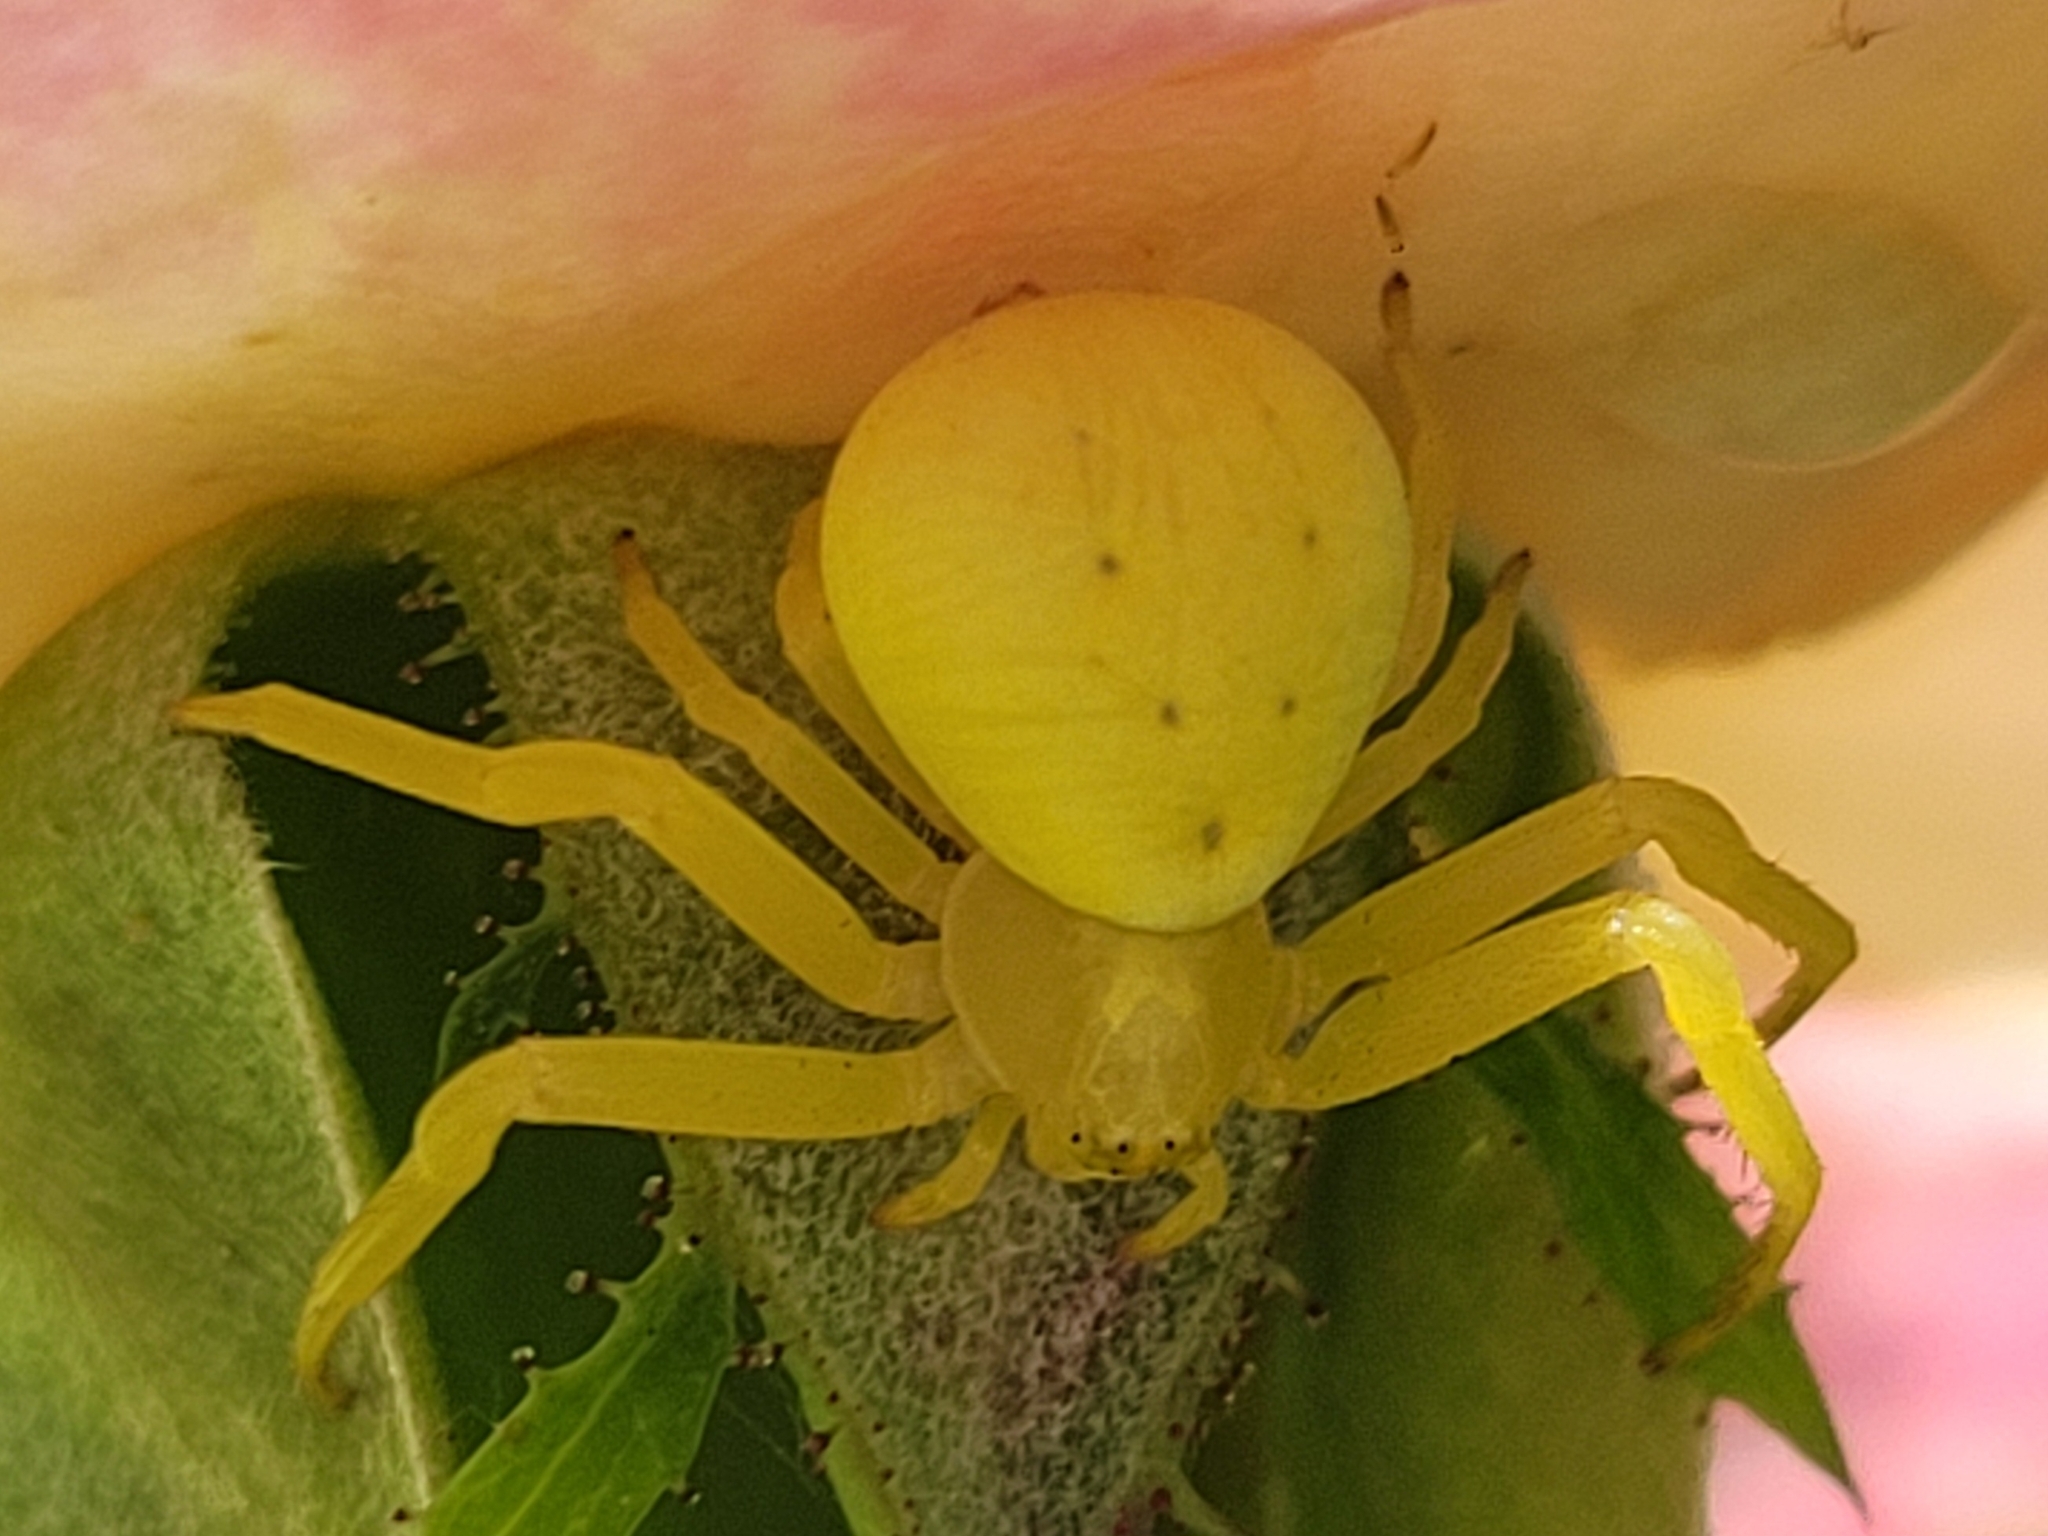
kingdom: Animalia
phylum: Arthropoda
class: Arachnida
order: Araneae
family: Thomisidae
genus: Misumena
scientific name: Misumena vatia
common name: Goldenrod crab spider
